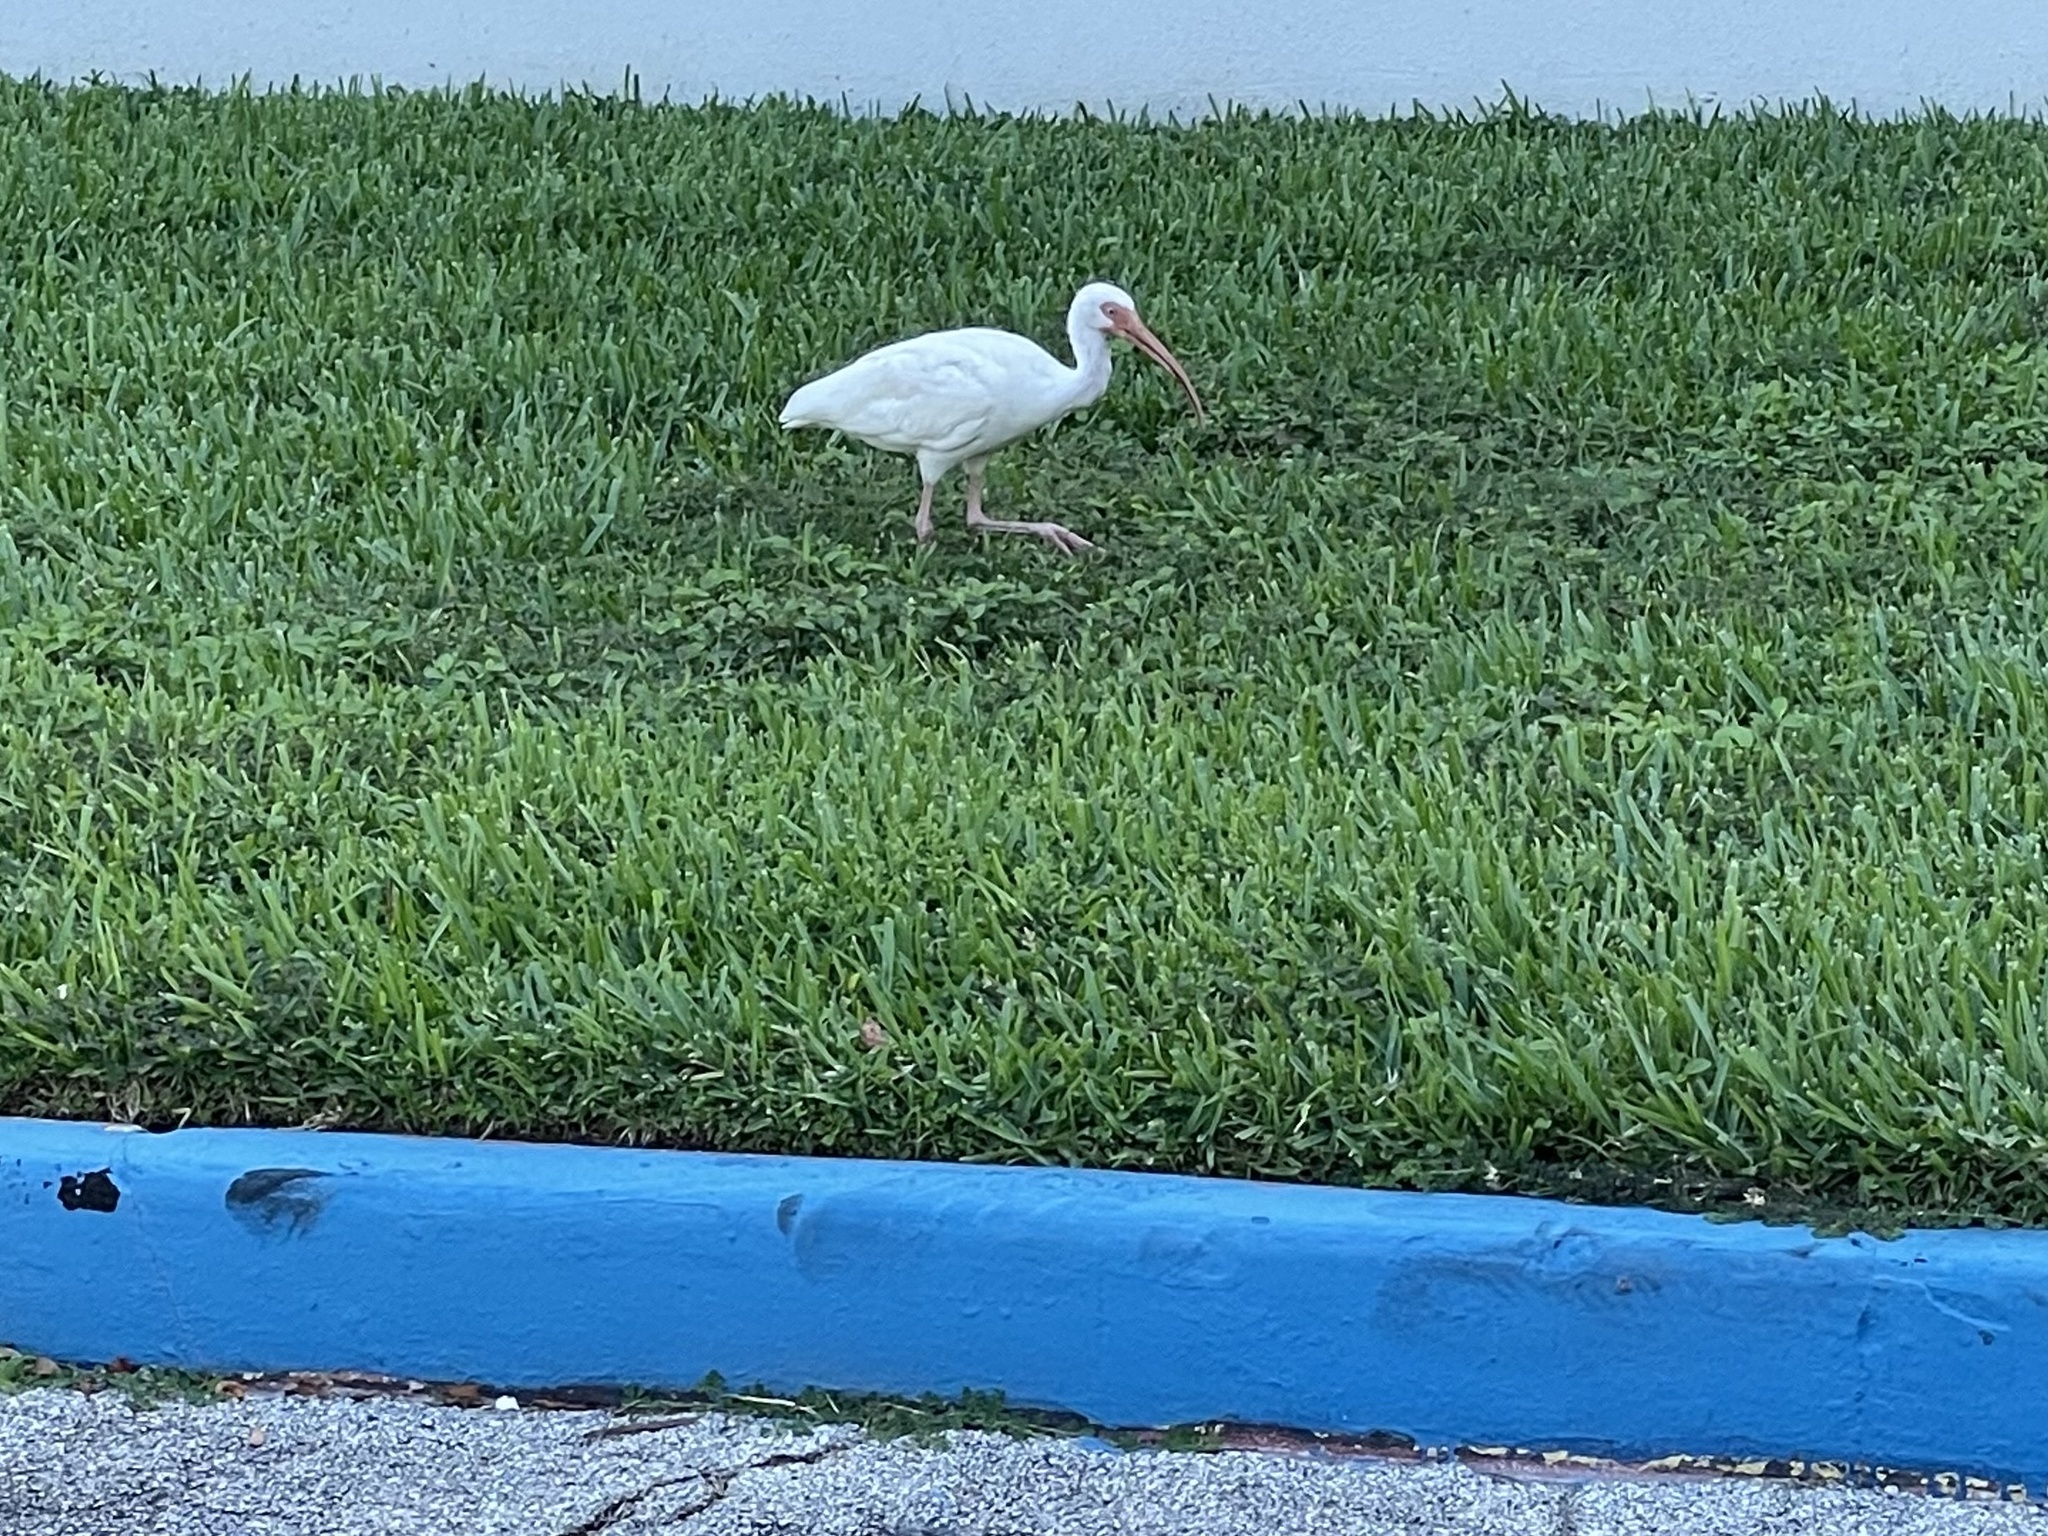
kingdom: Animalia
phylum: Chordata
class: Aves
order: Pelecaniformes
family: Threskiornithidae
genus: Eudocimus
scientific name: Eudocimus albus
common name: White ibis
